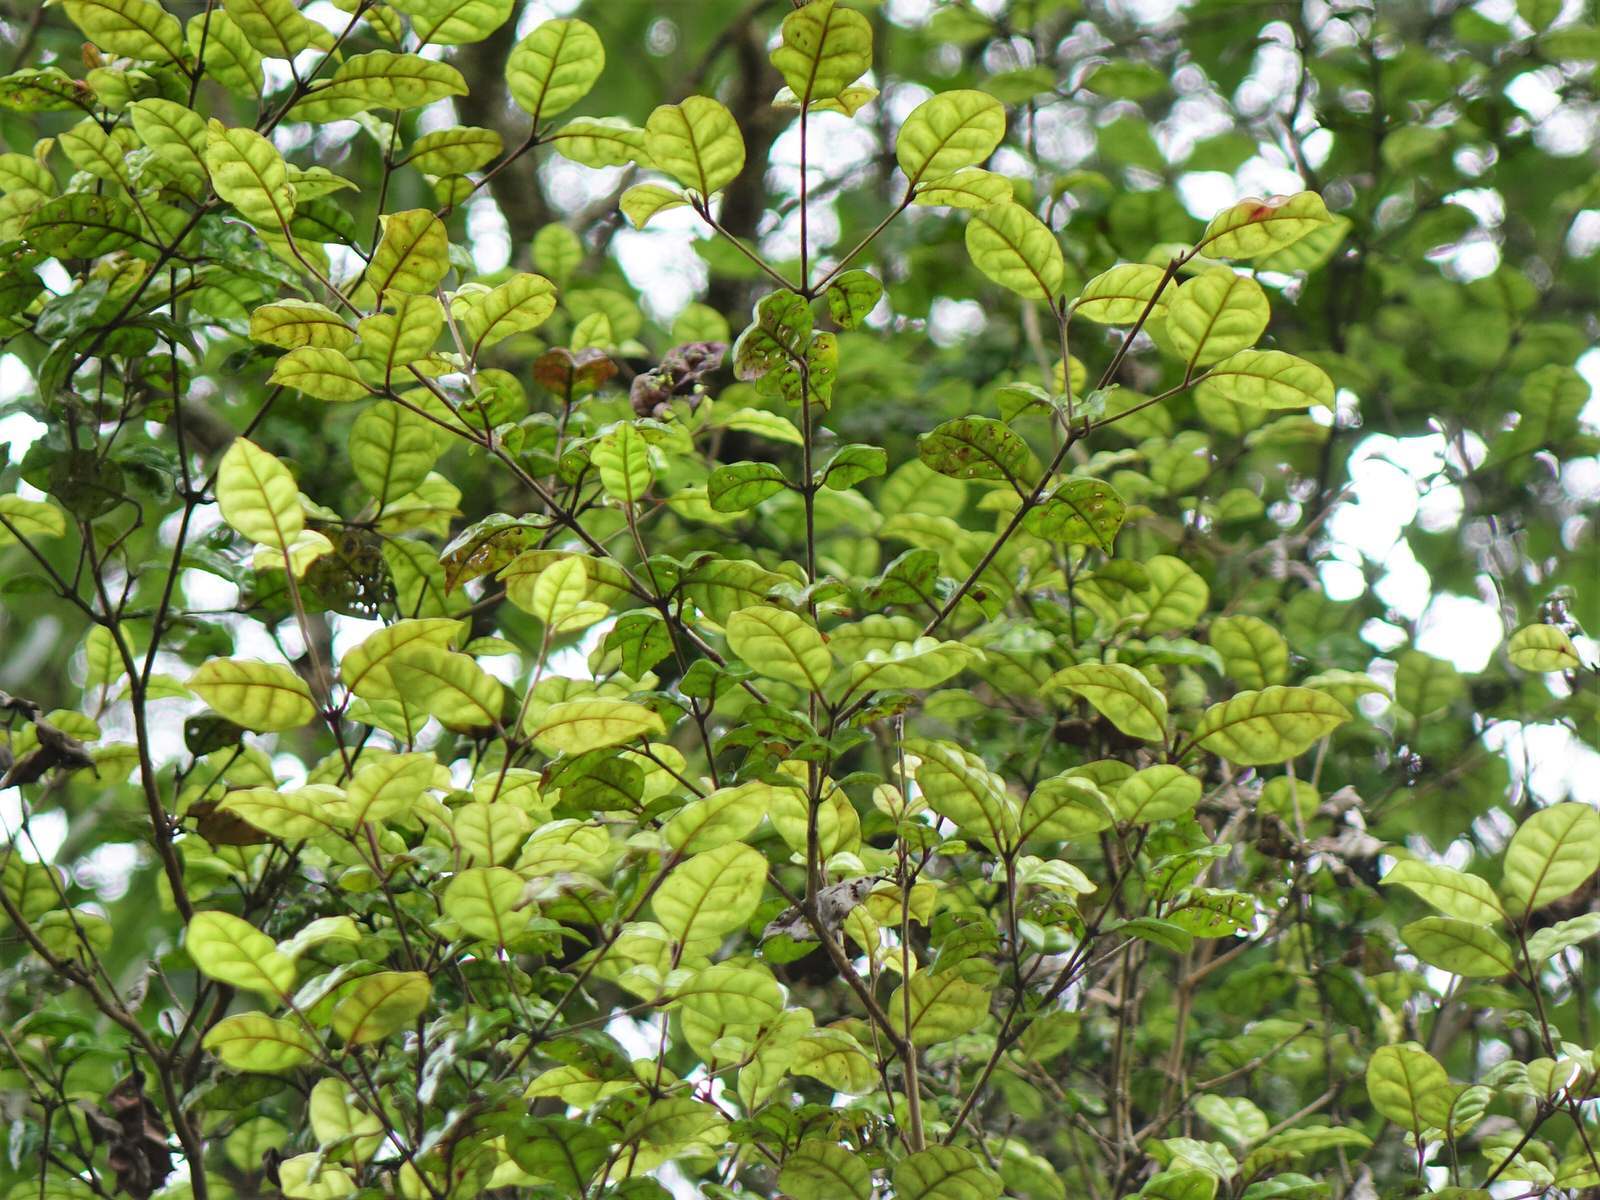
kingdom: Plantae
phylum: Tracheophyta
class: Magnoliopsida
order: Myrtales
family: Myrtaceae
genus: Lophomyrtus
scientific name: Lophomyrtus bullata
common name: Rama rama
